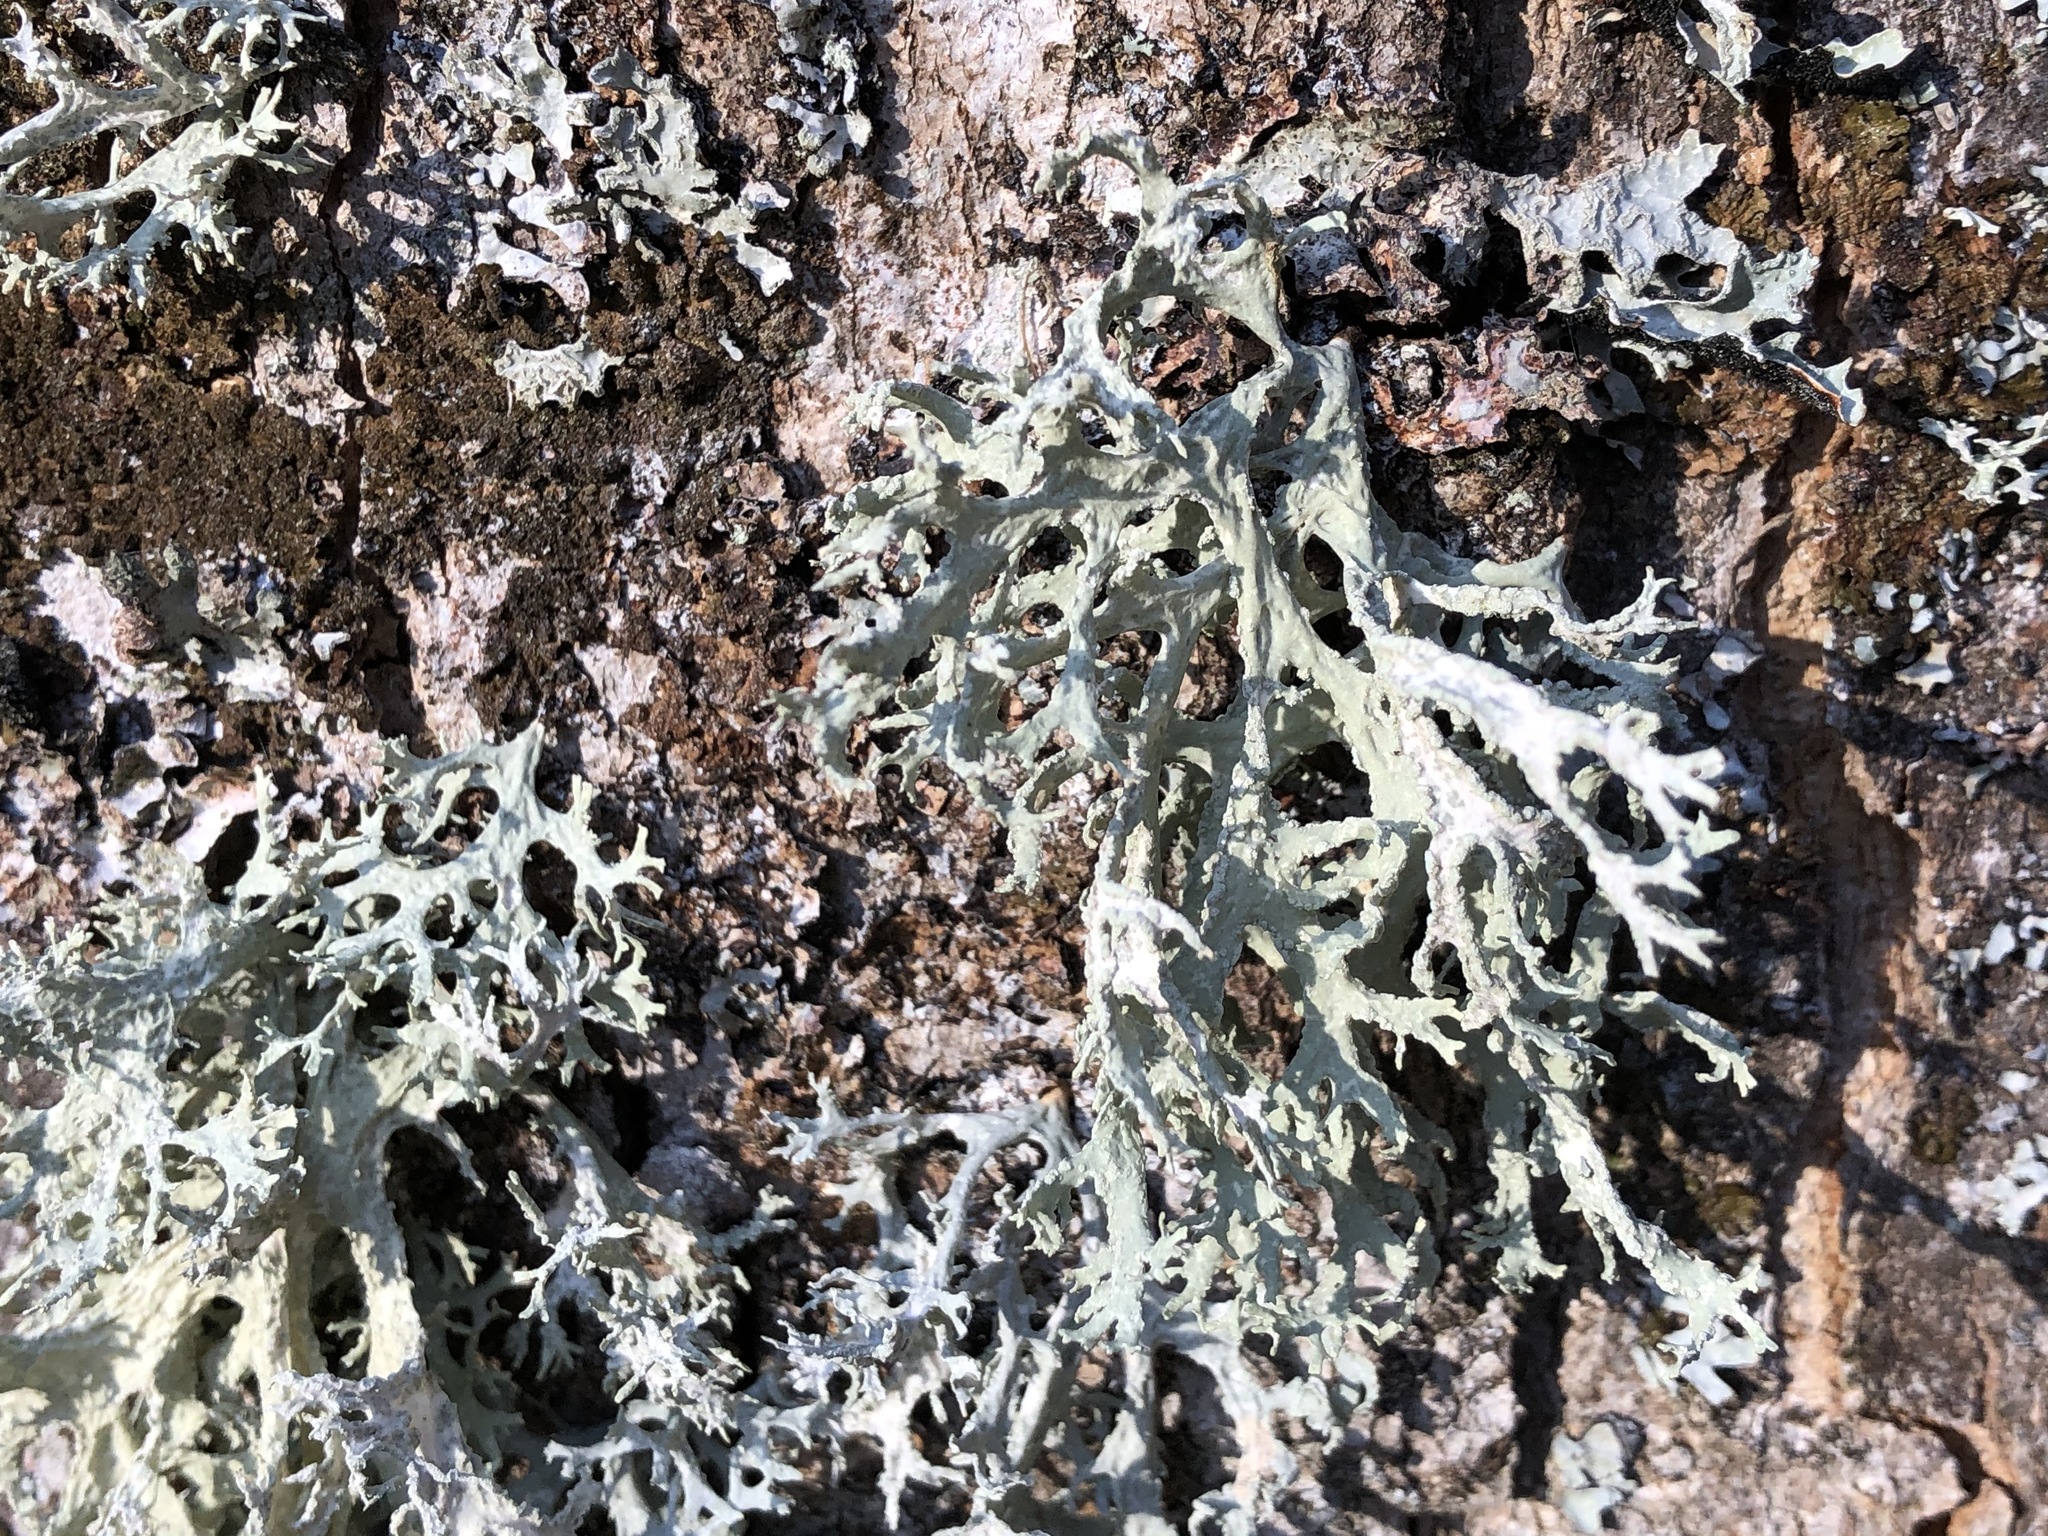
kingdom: Fungi
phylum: Ascomycota
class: Lecanoromycetes
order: Lecanorales
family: Parmeliaceae
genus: Evernia
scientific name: Evernia prunastri
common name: Oak moss
